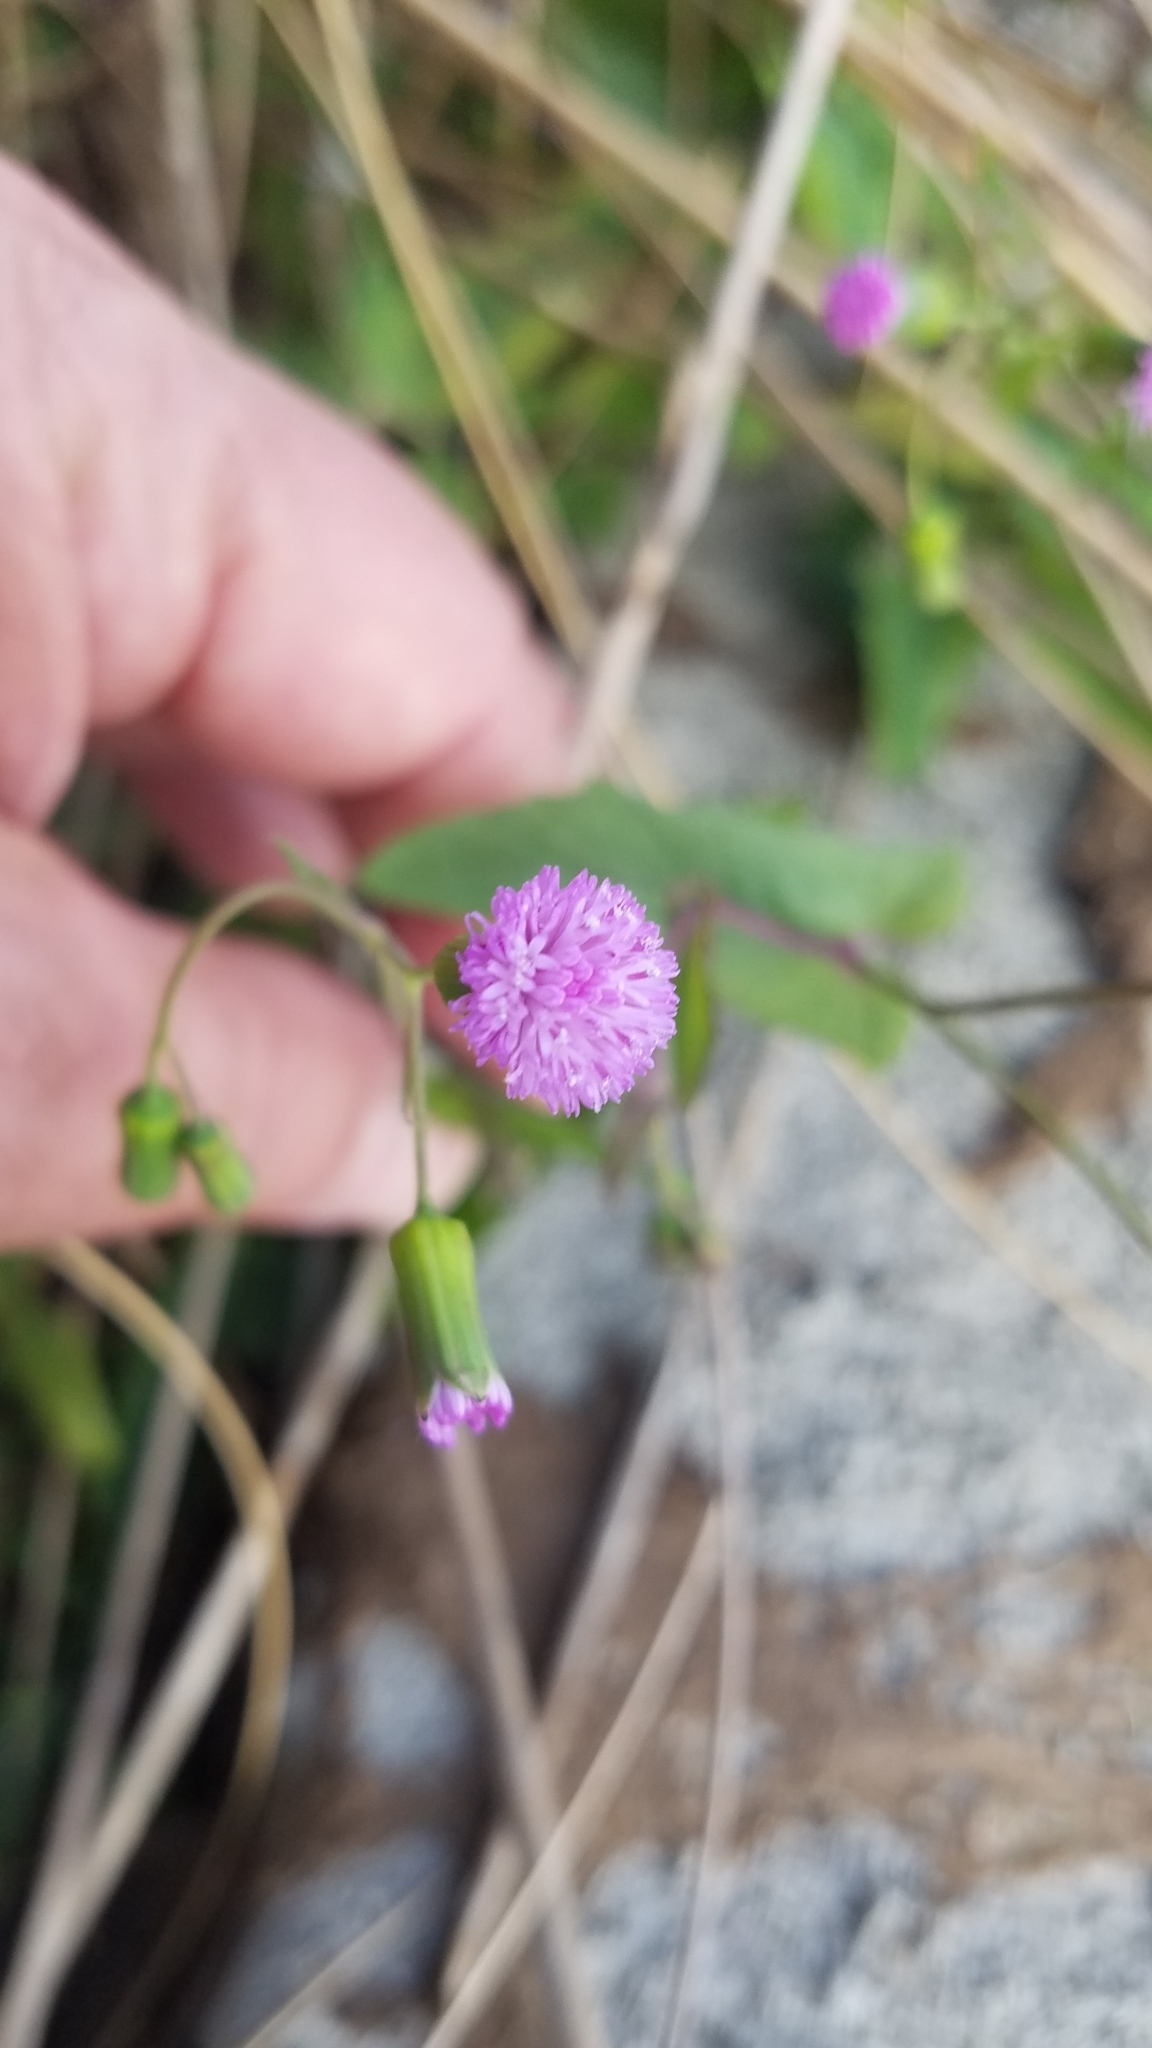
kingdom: Plantae
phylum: Tracheophyta
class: Magnoliopsida
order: Asterales
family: Asteraceae
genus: Emilia
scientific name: Emilia sonchifolia
